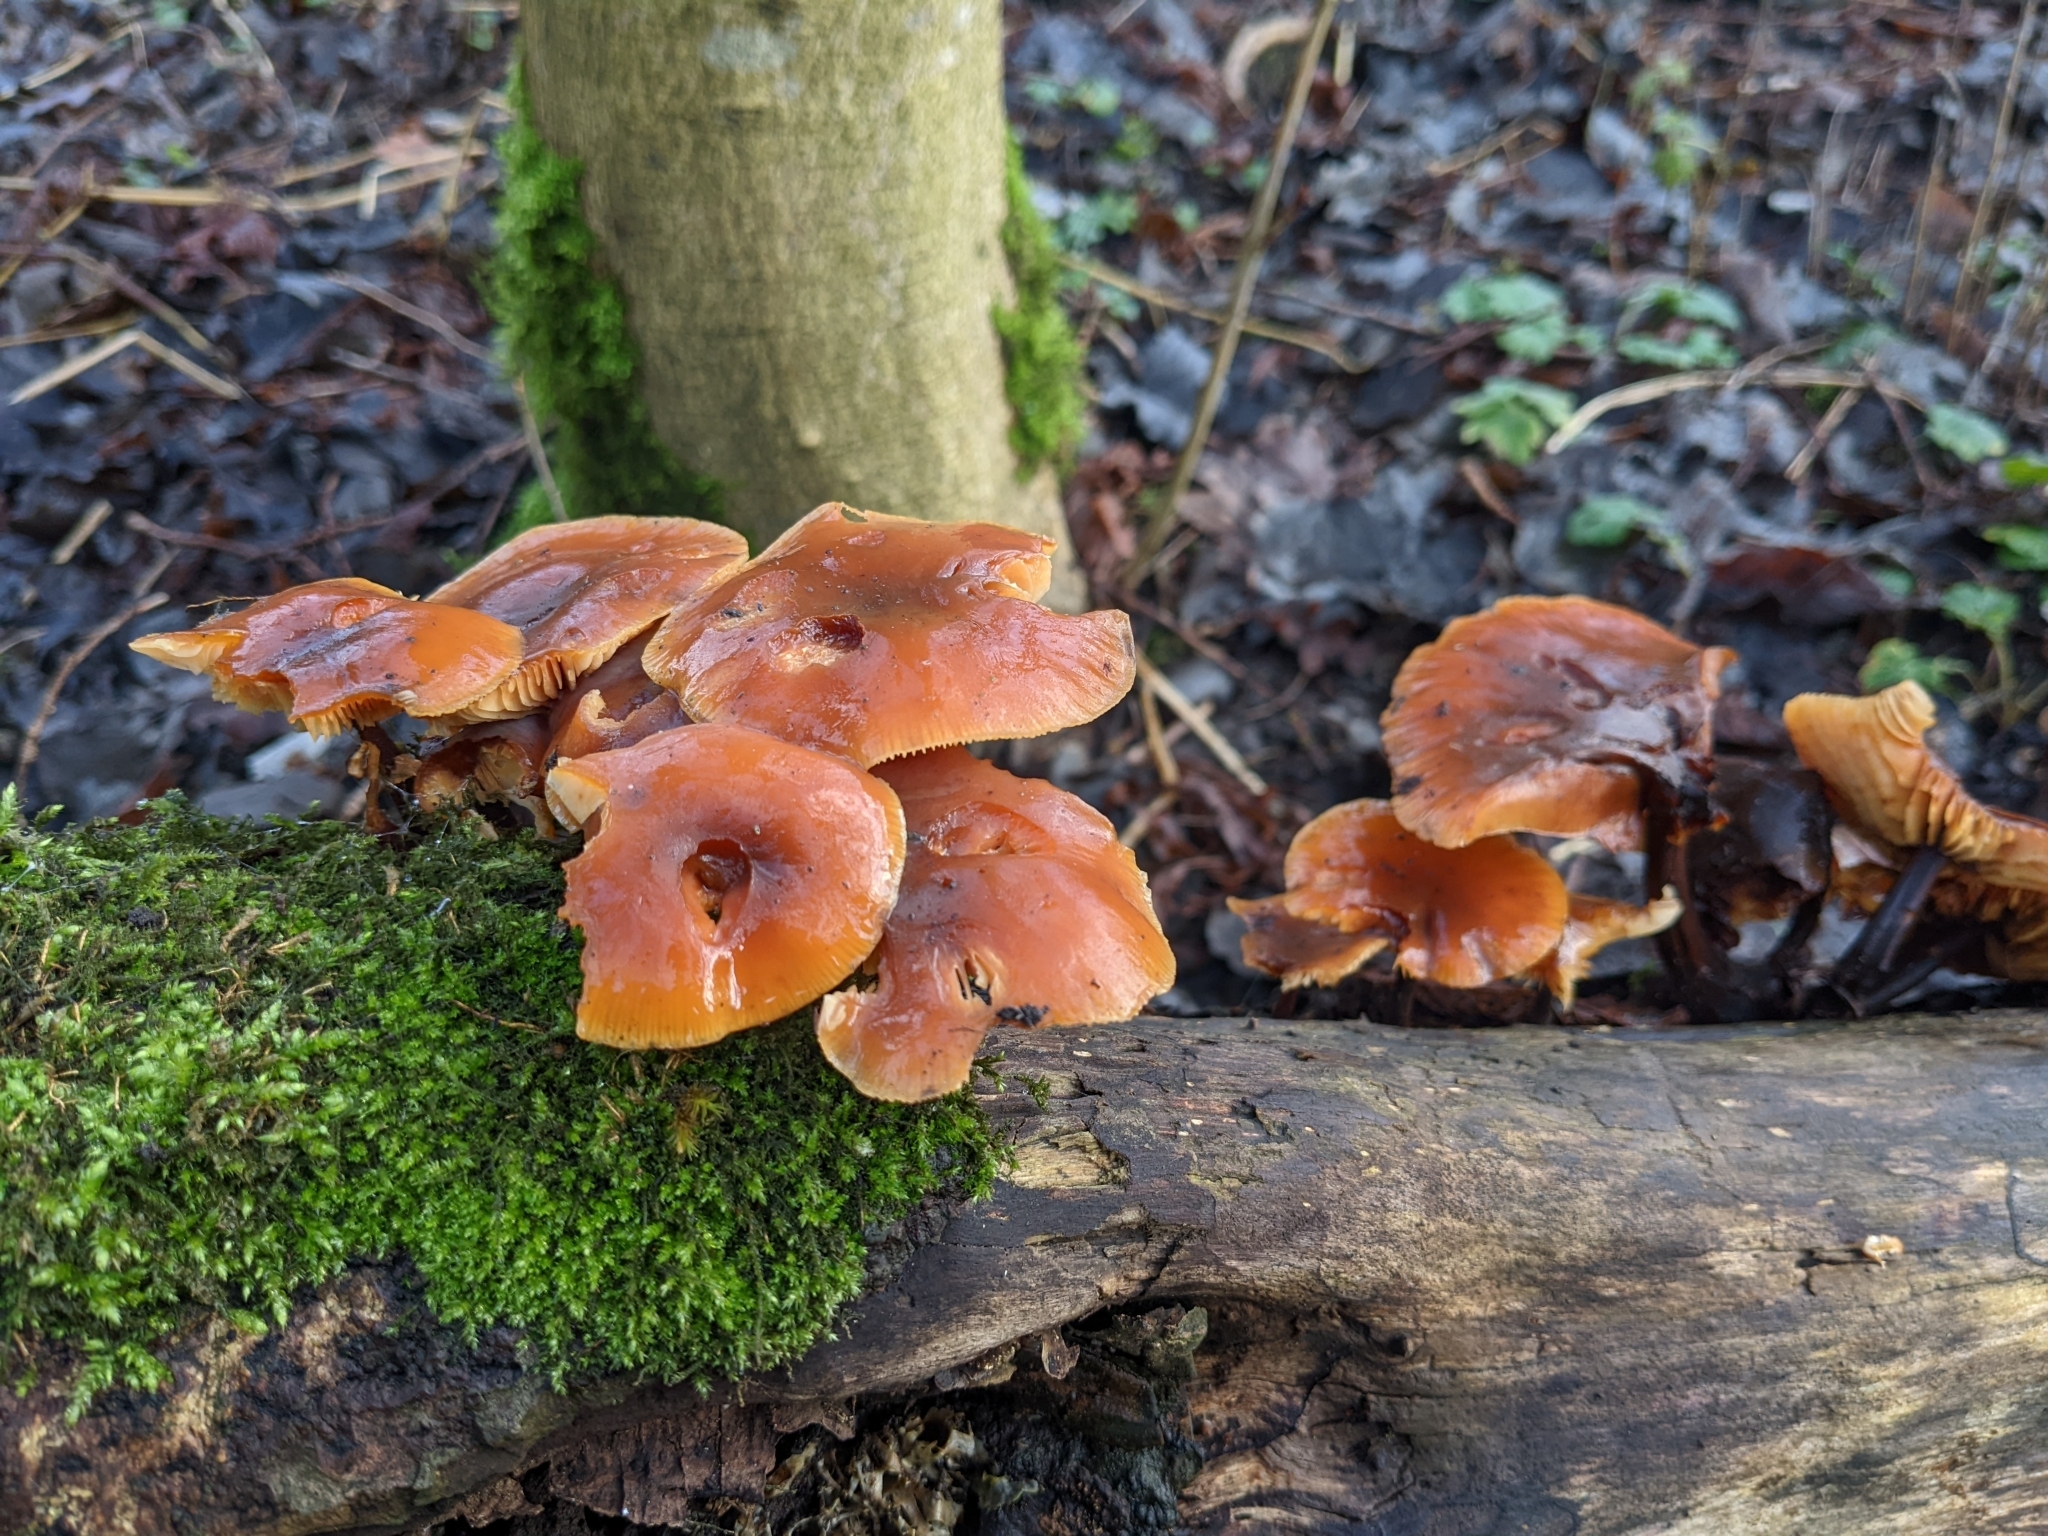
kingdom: Fungi
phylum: Basidiomycota
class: Agaricomycetes
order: Agaricales
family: Physalacriaceae
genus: Flammulina
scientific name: Flammulina
